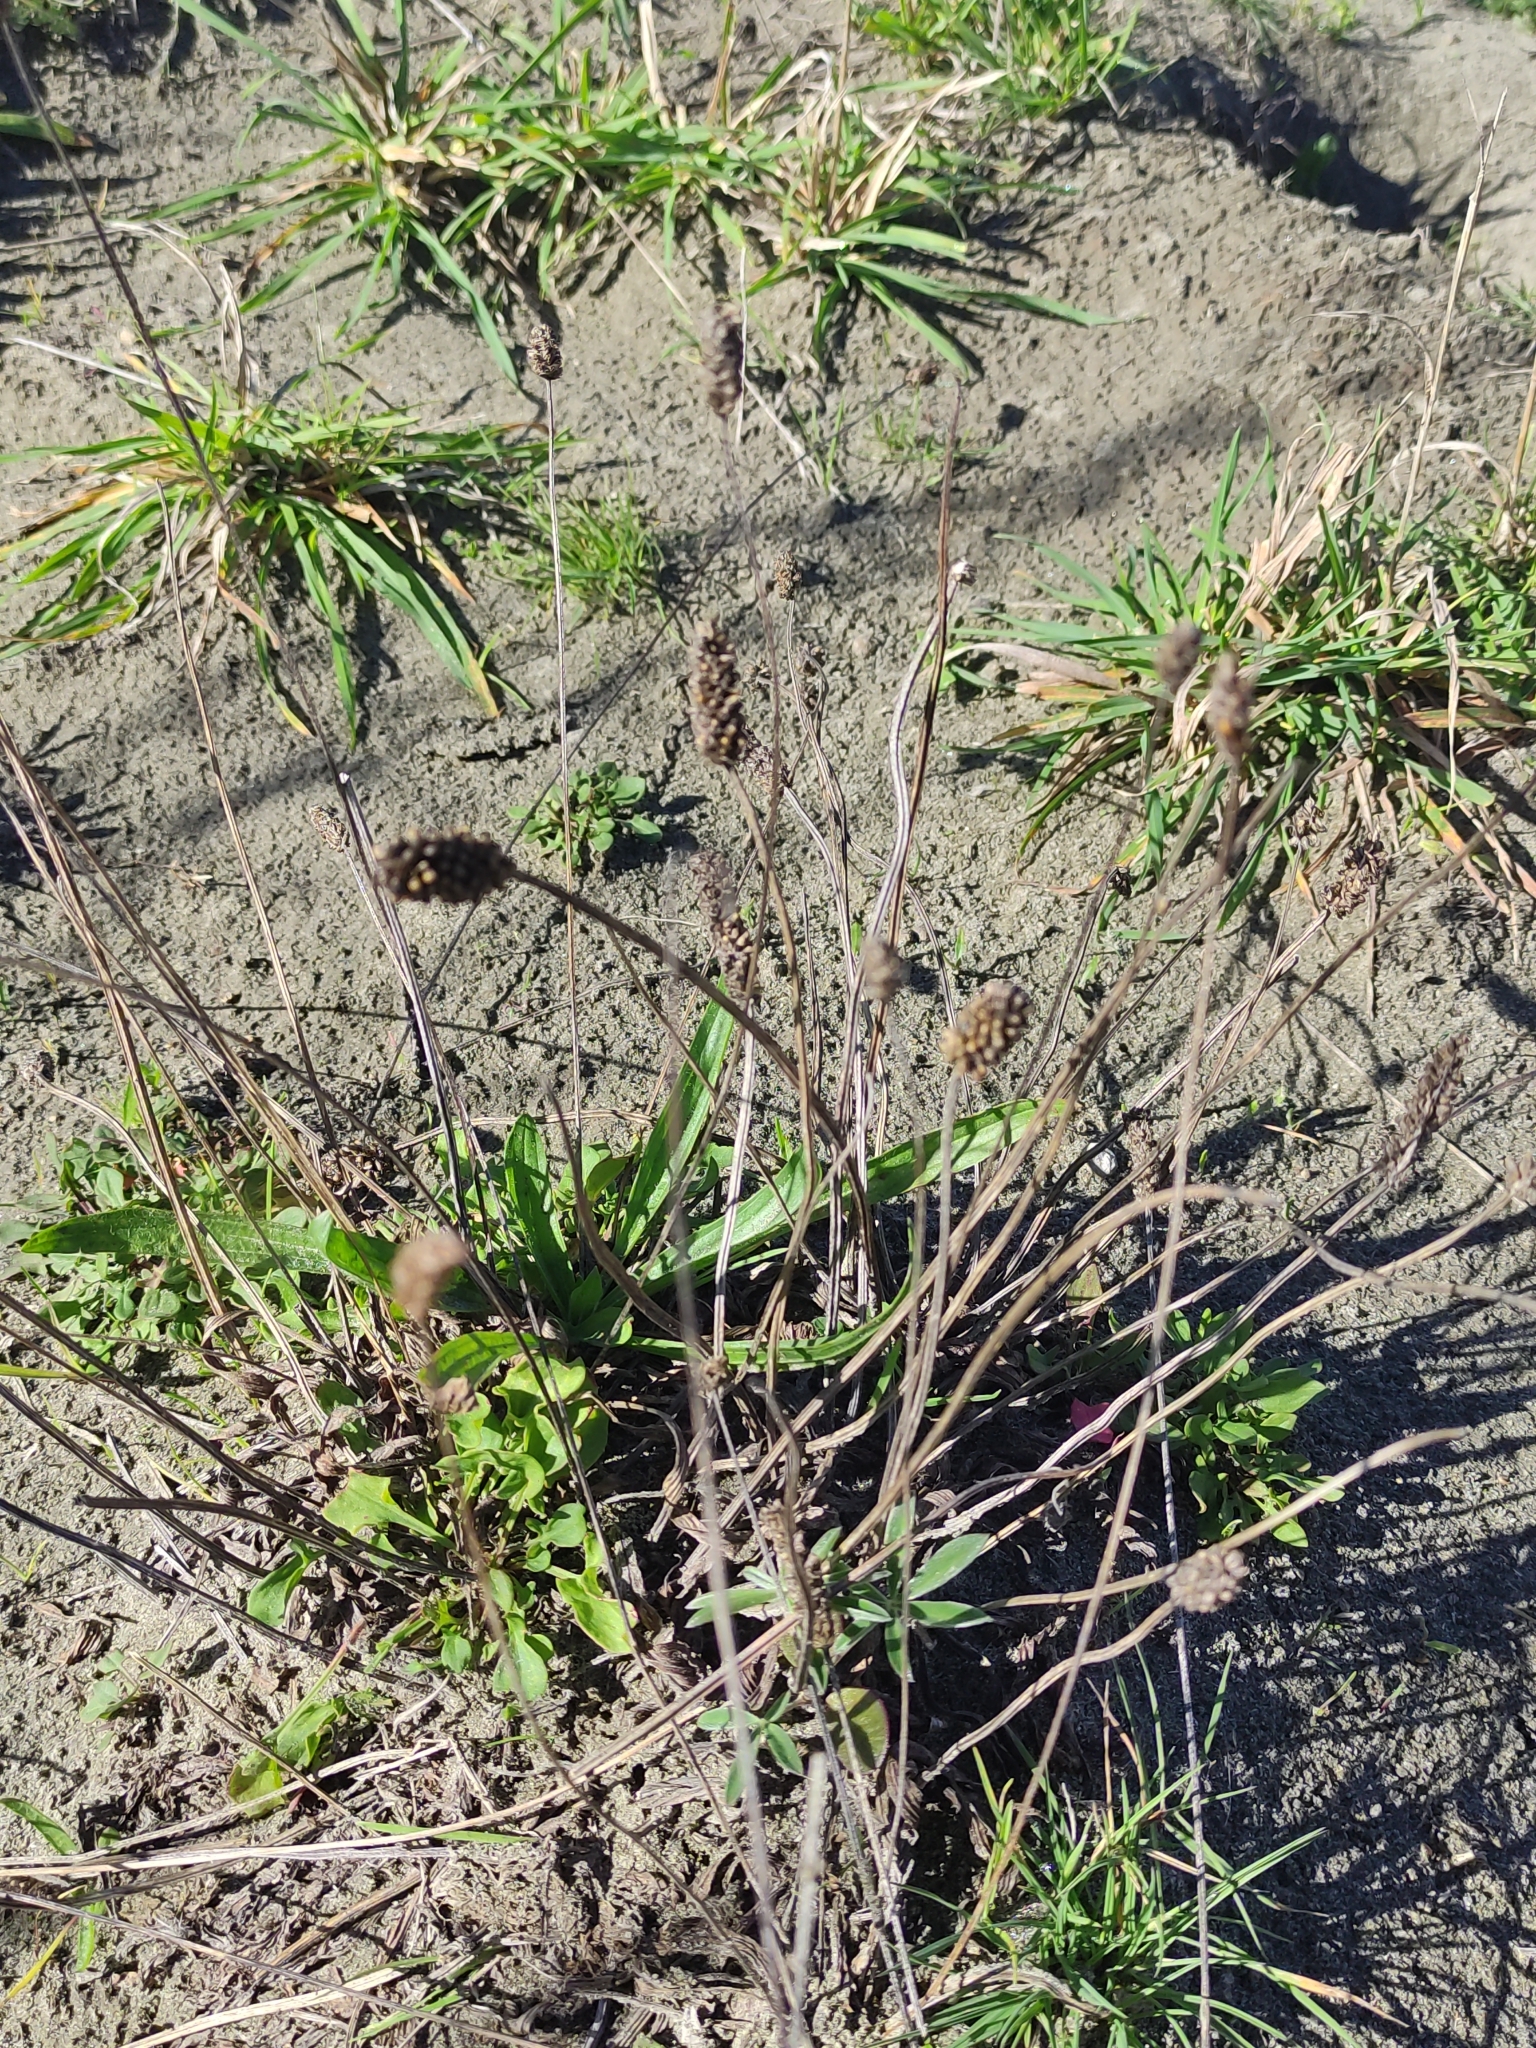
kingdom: Plantae
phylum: Tracheophyta
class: Magnoliopsida
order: Lamiales
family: Plantaginaceae
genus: Plantago
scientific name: Plantago lanceolata
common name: Ribwort plantain
